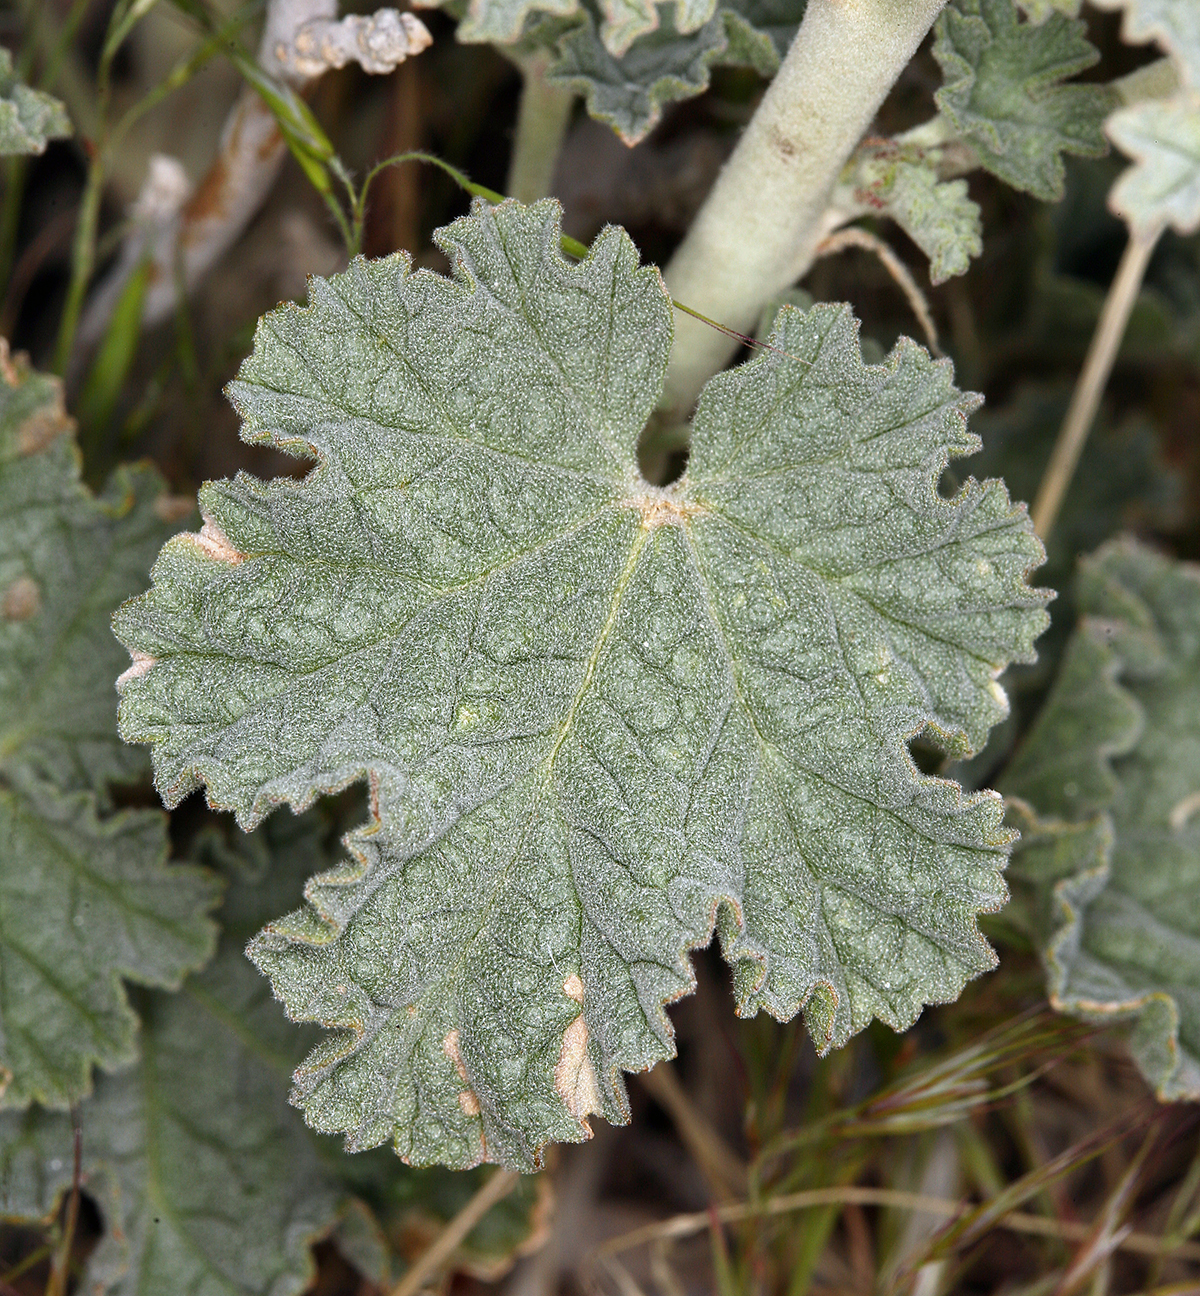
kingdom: Plantae
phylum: Tracheophyta
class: Magnoliopsida
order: Malvales
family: Malvaceae
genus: Sphaeralcea
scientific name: Sphaeralcea ambigua
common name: Apricot globe-mallow
